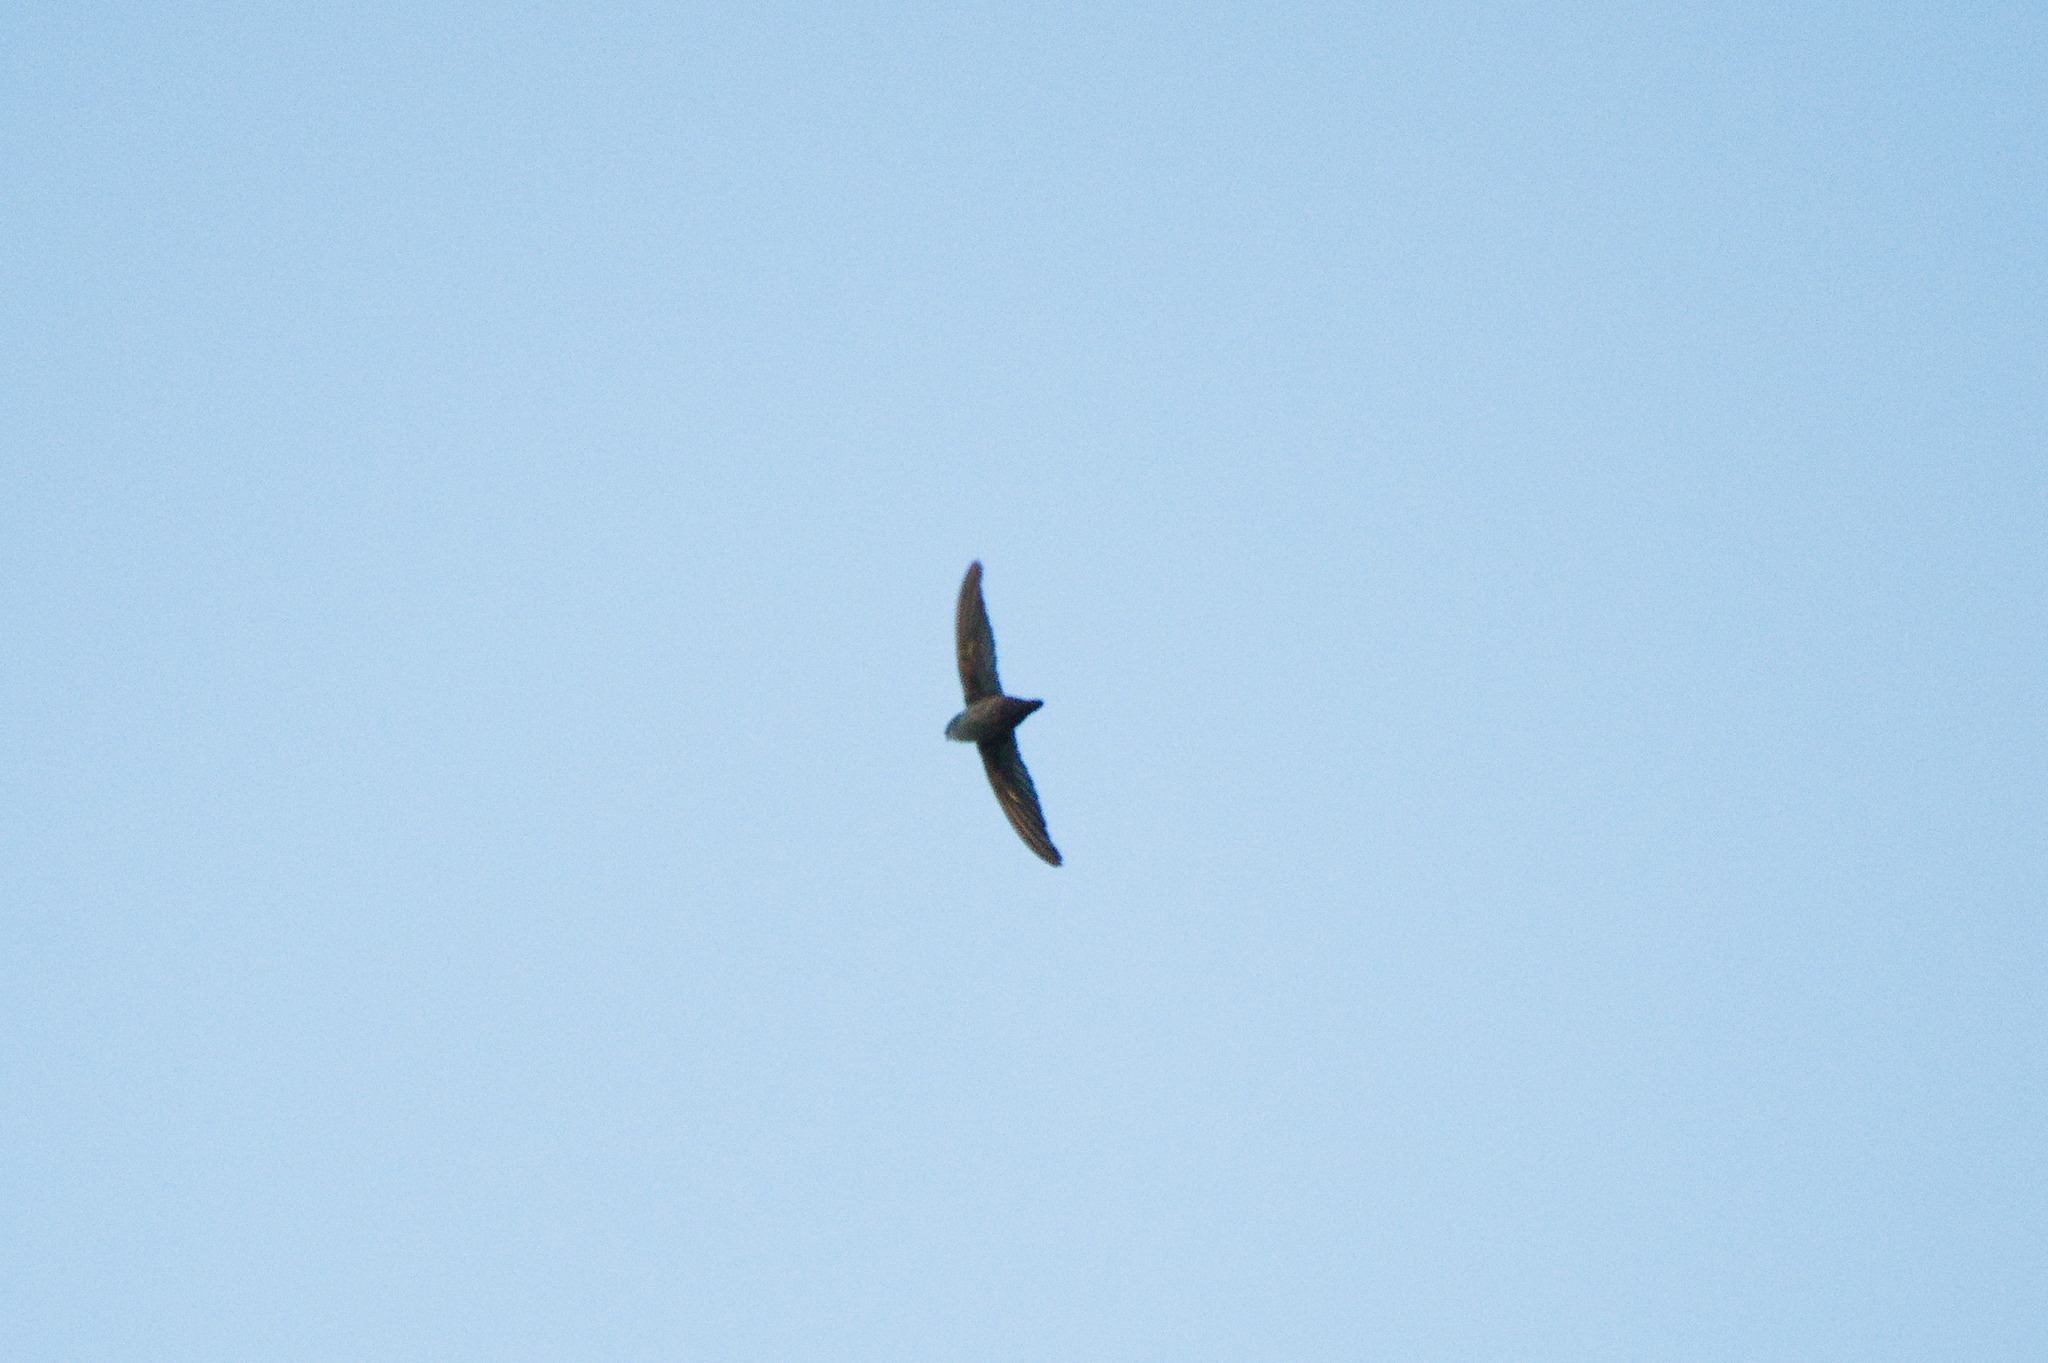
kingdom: Animalia
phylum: Chordata
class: Aves
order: Apodiformes
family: Apodidae
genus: Chaetura
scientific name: Chaetura vauxi
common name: Vaux's swift
